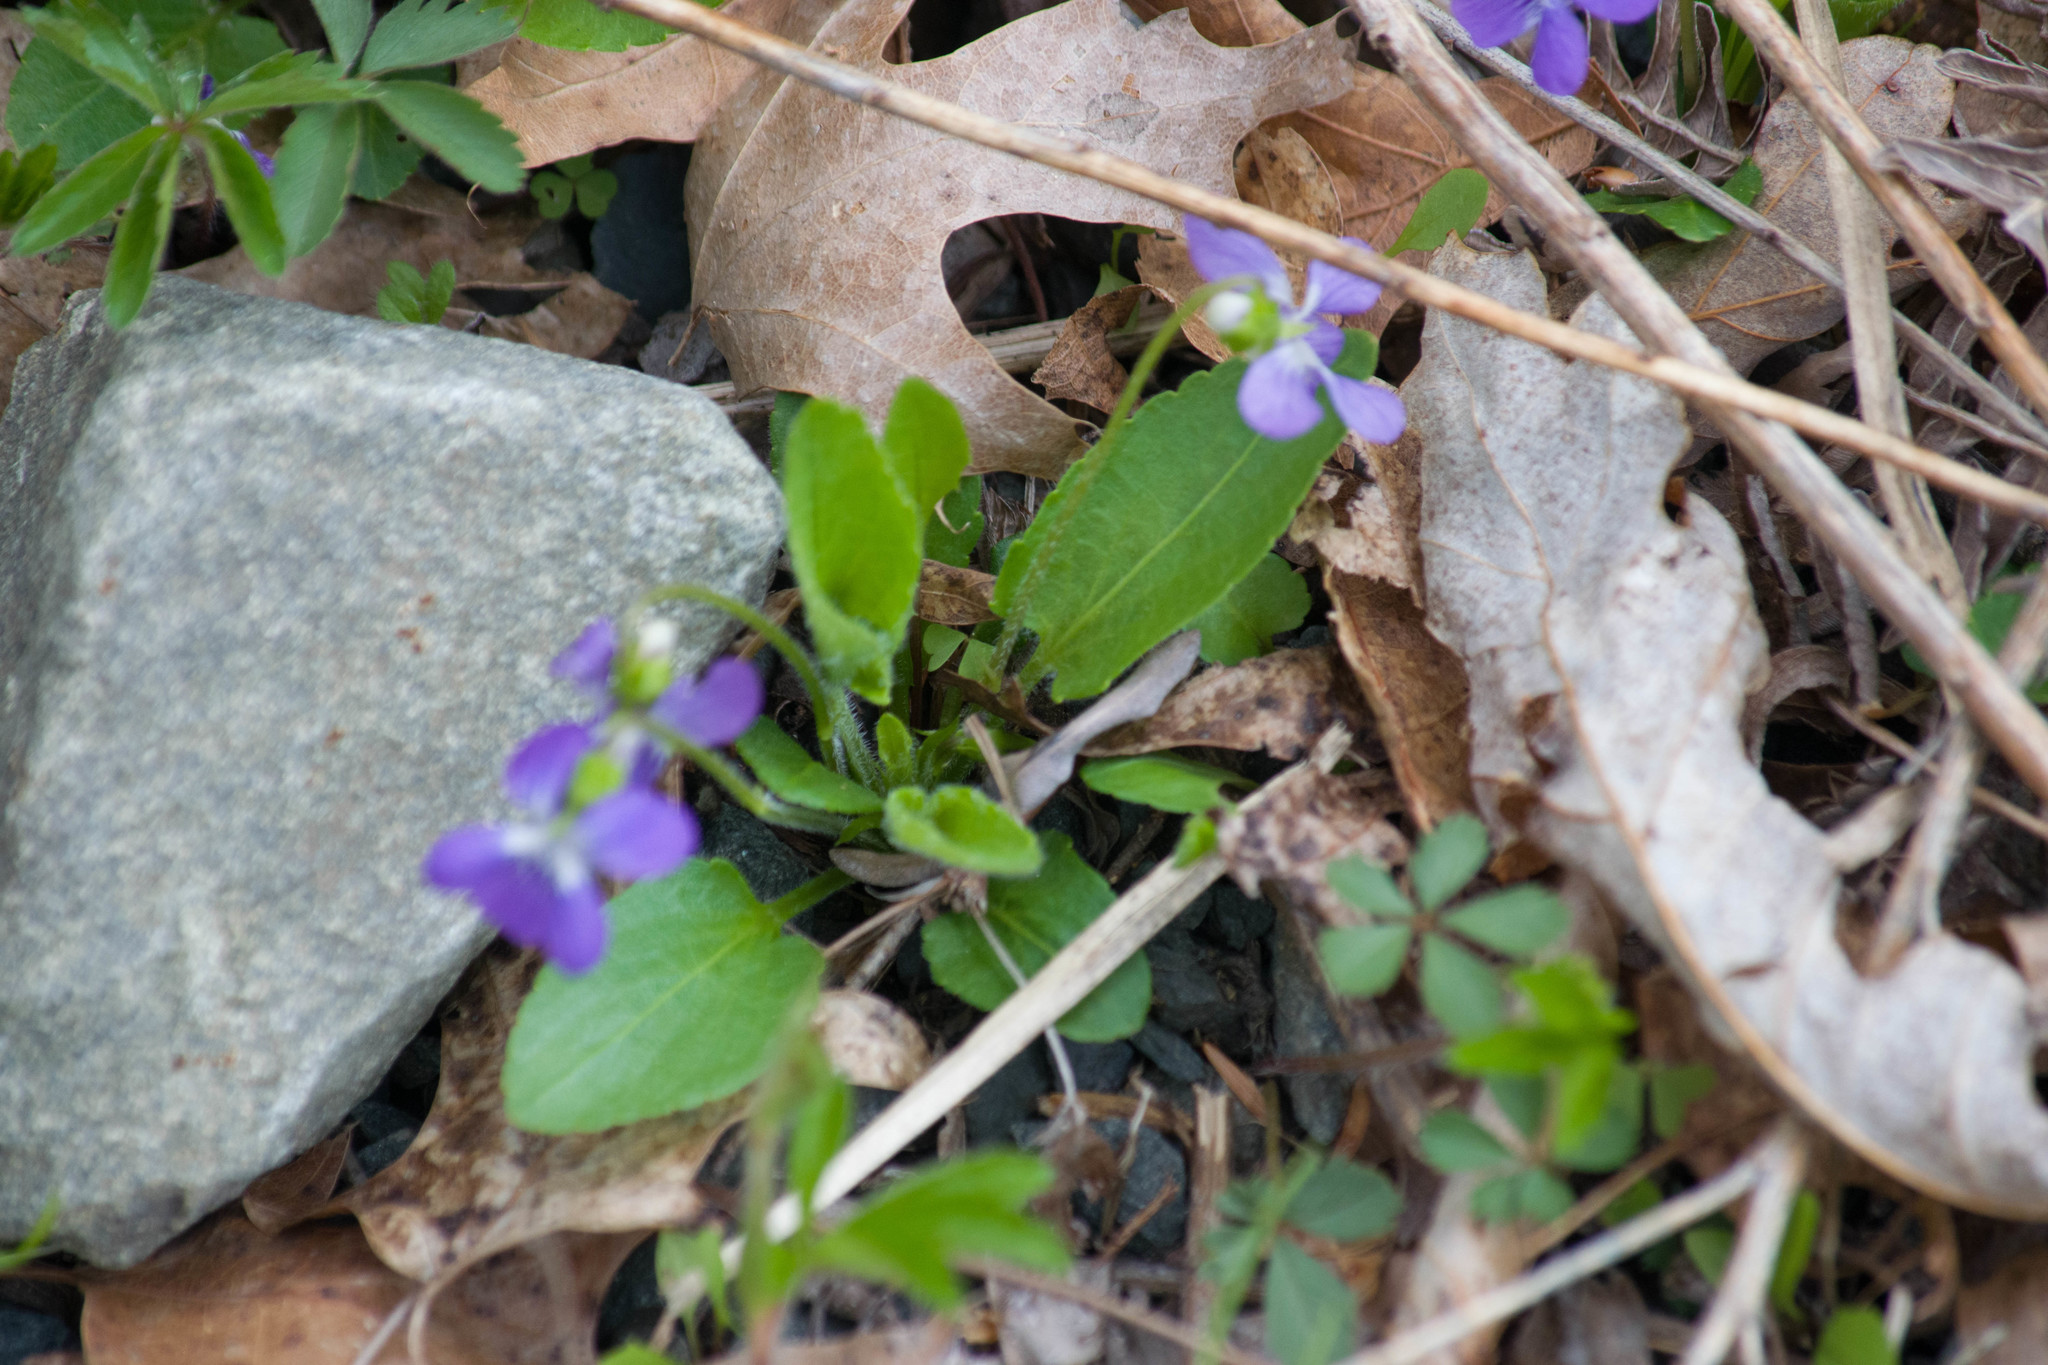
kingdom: Plantae
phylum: Tracheophyta
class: Magnoliopsida
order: Malpighiales
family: Violaceae
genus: Viola
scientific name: Viola sagittata
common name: Arrowhead violet
